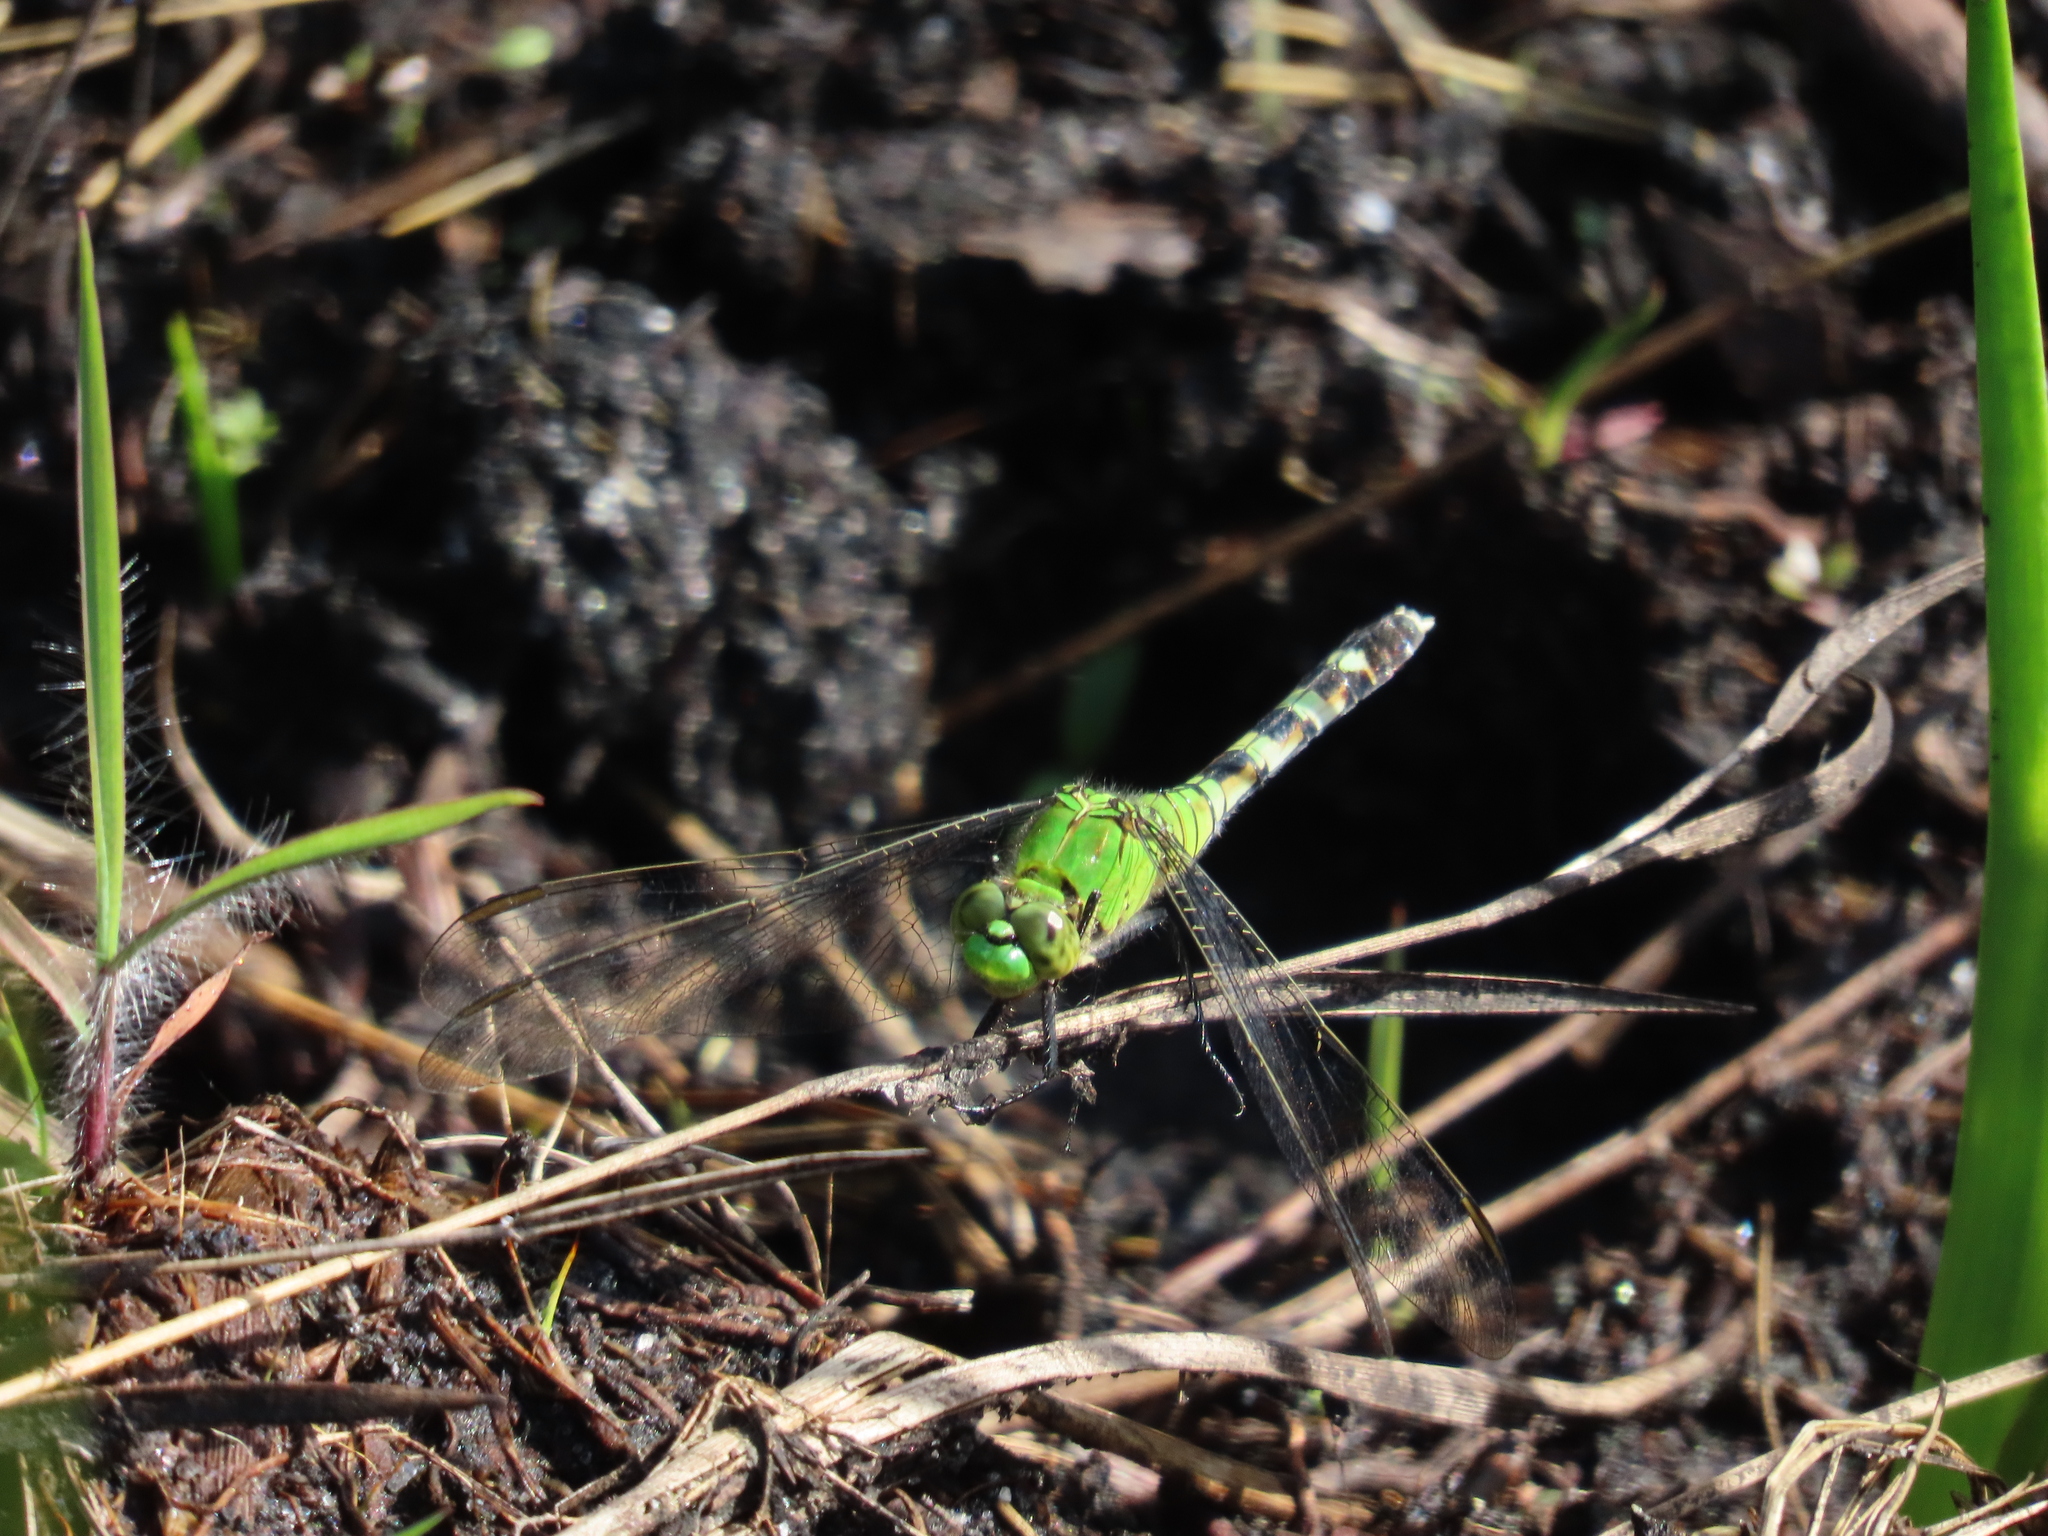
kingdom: Animalia
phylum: Arthropoda
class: Insecta
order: Odonata
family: Libellulidae
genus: Erythemis
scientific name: Erythemis simplicicollis
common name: Eastern pondhawk
